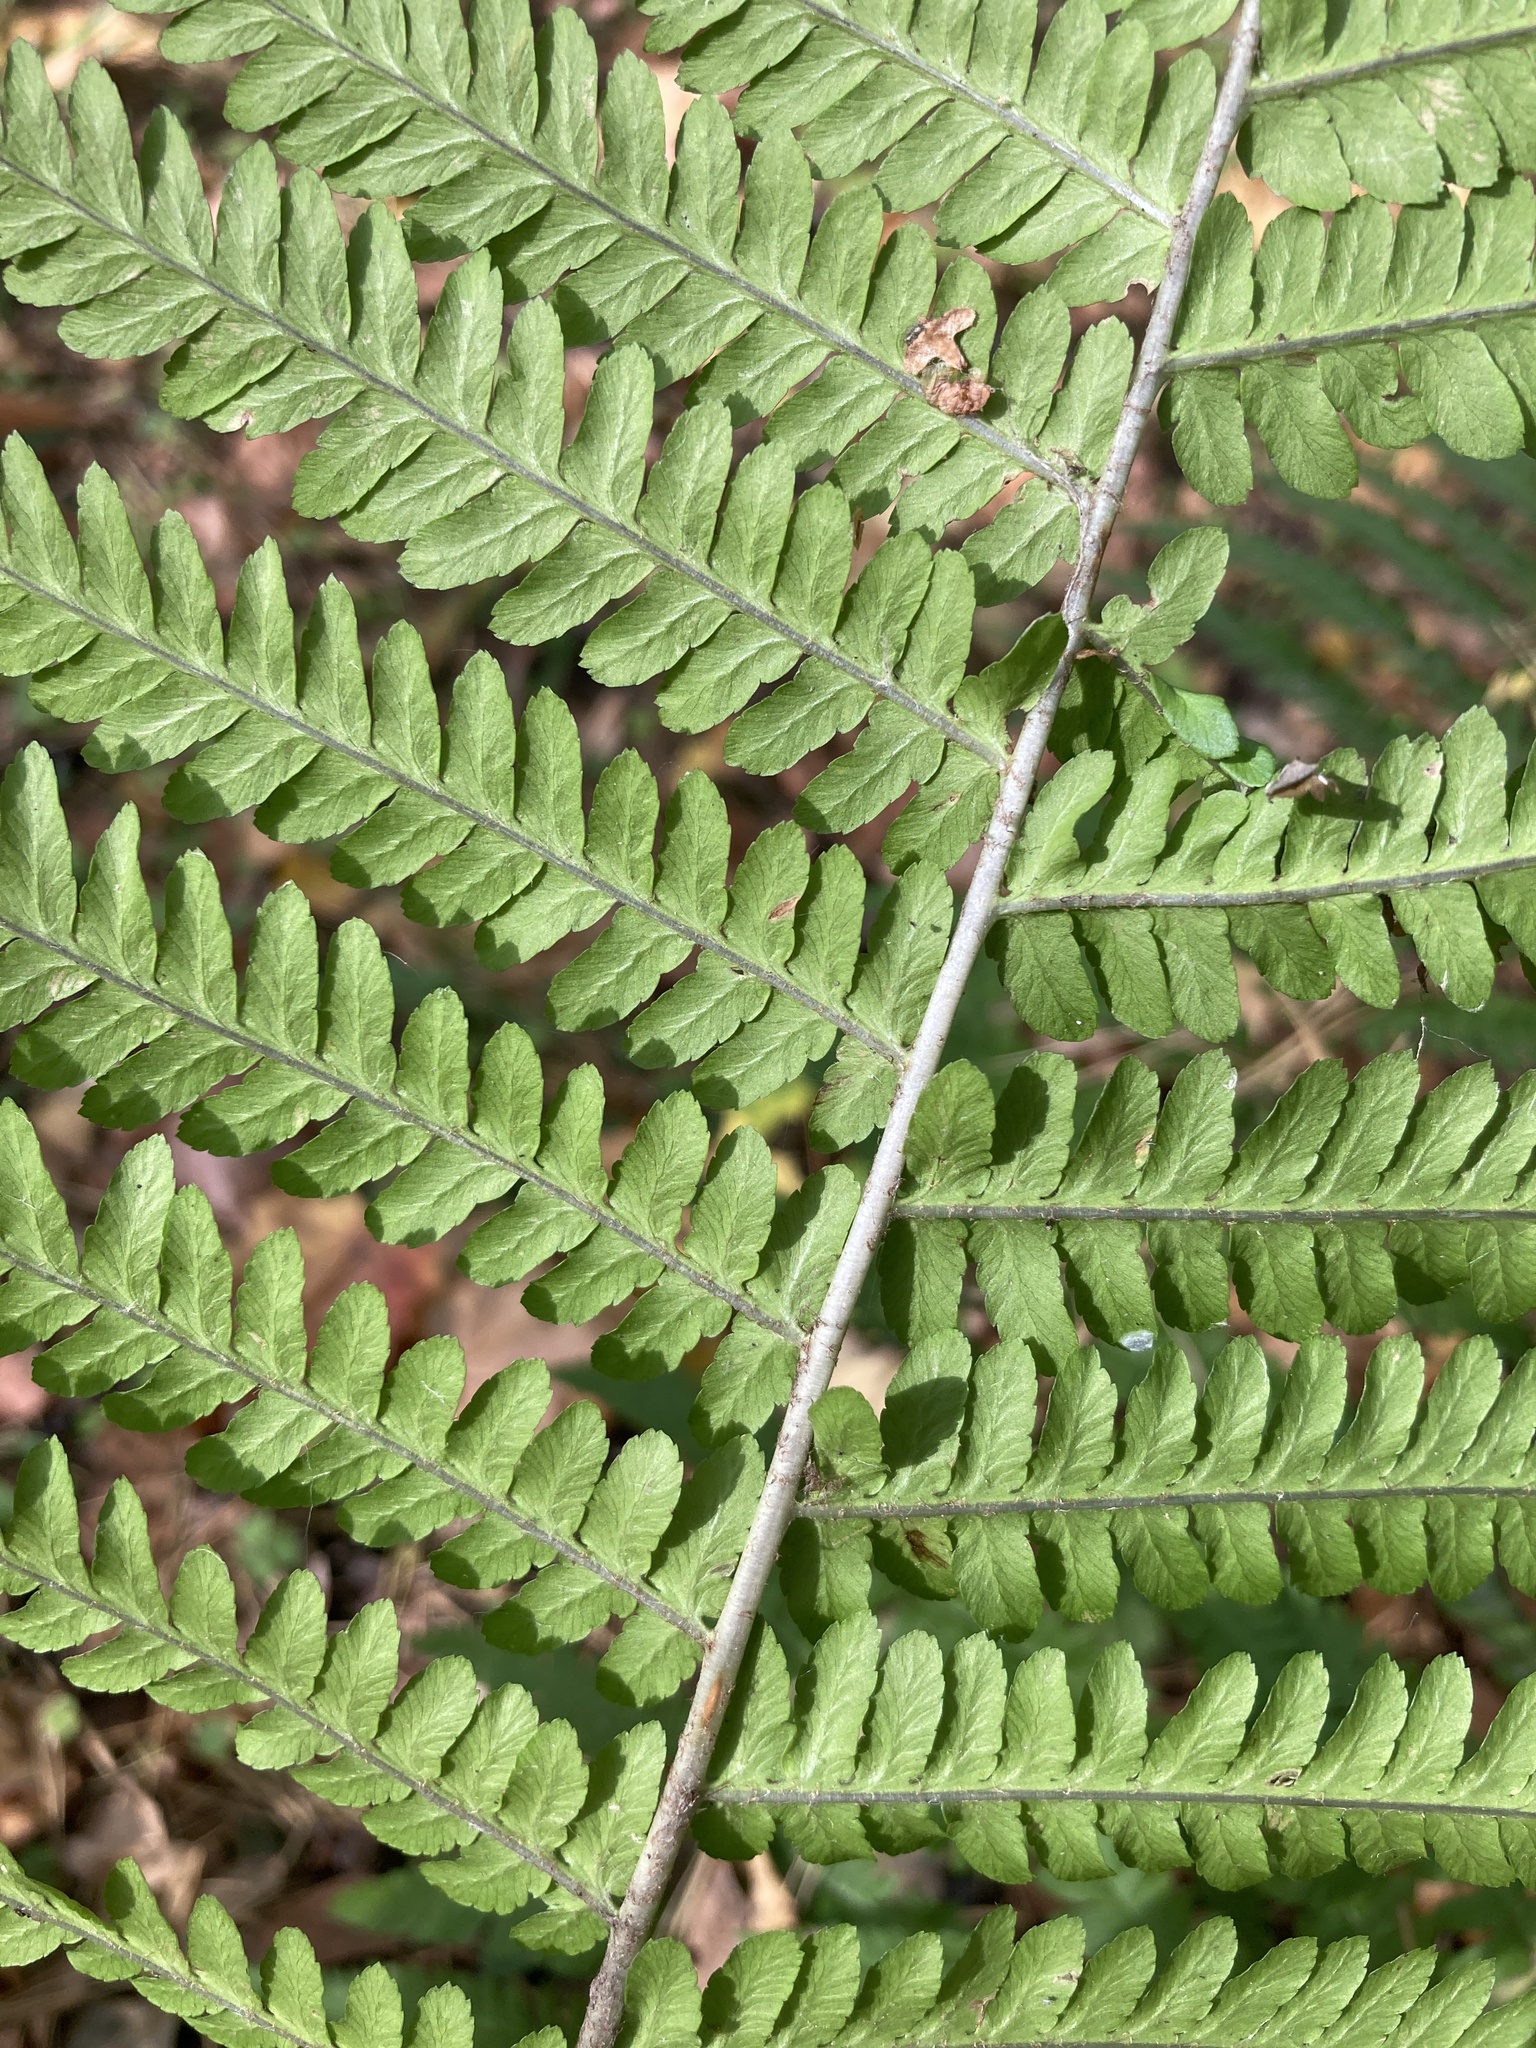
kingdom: Plantae
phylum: Tracheophyta
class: Polypodiopsida
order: Polypodiales
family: Dryopteridaceae
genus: Dryopteris
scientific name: Dryopteris filix-mas
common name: Male fern
